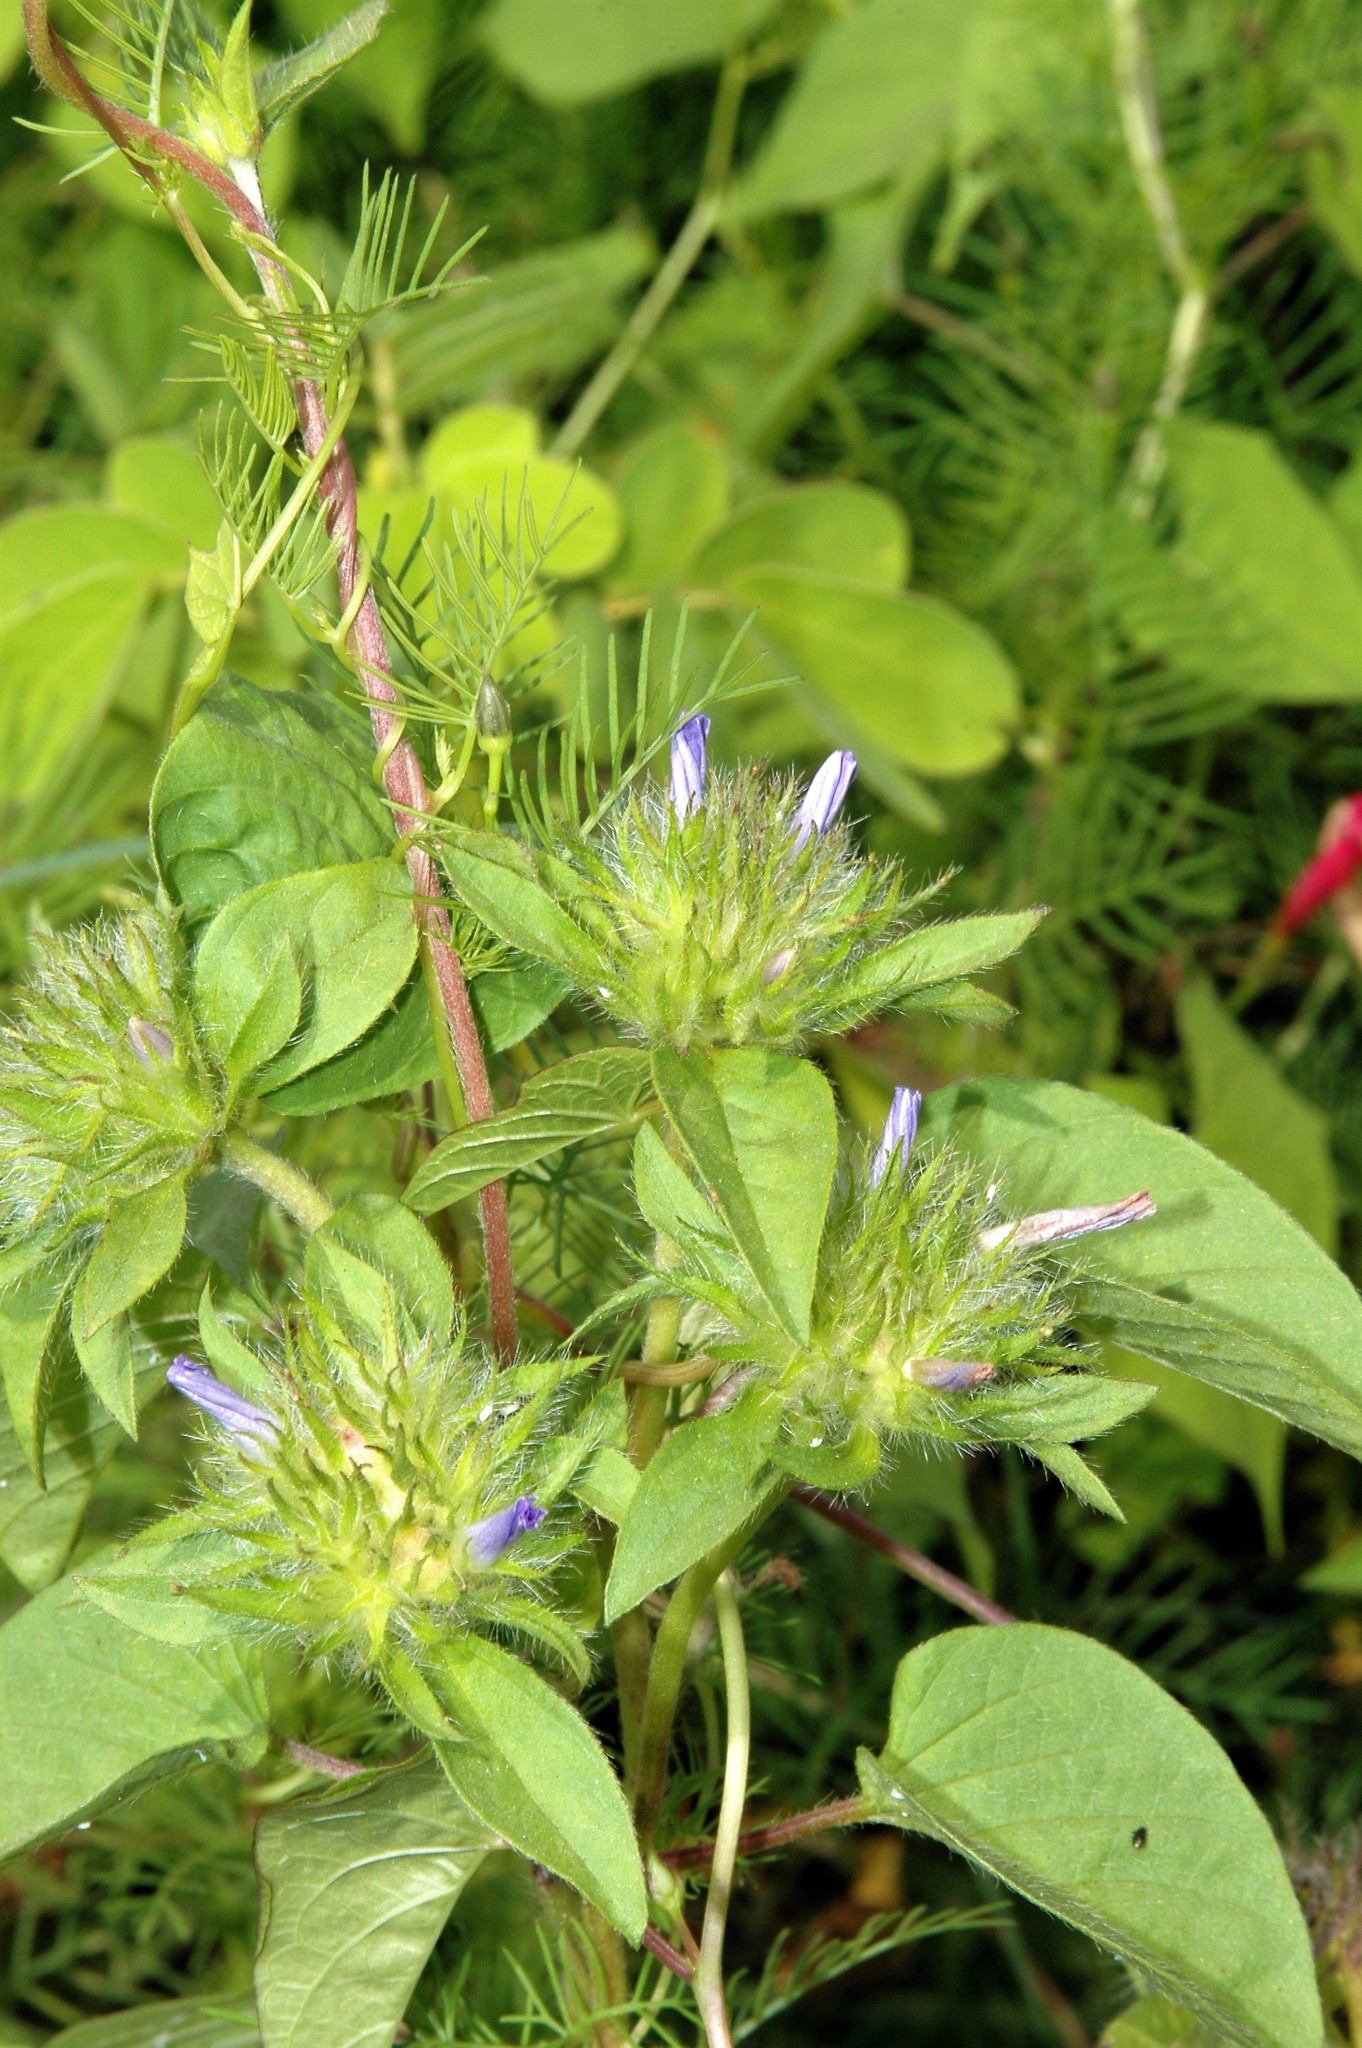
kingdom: Plantae
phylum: Tracheophyta
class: Magnoliopsida
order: Solanales
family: Convolvulaceae
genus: Jacquemontia
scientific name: Jacquemontia tamnifolia
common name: Hairy clustervine
